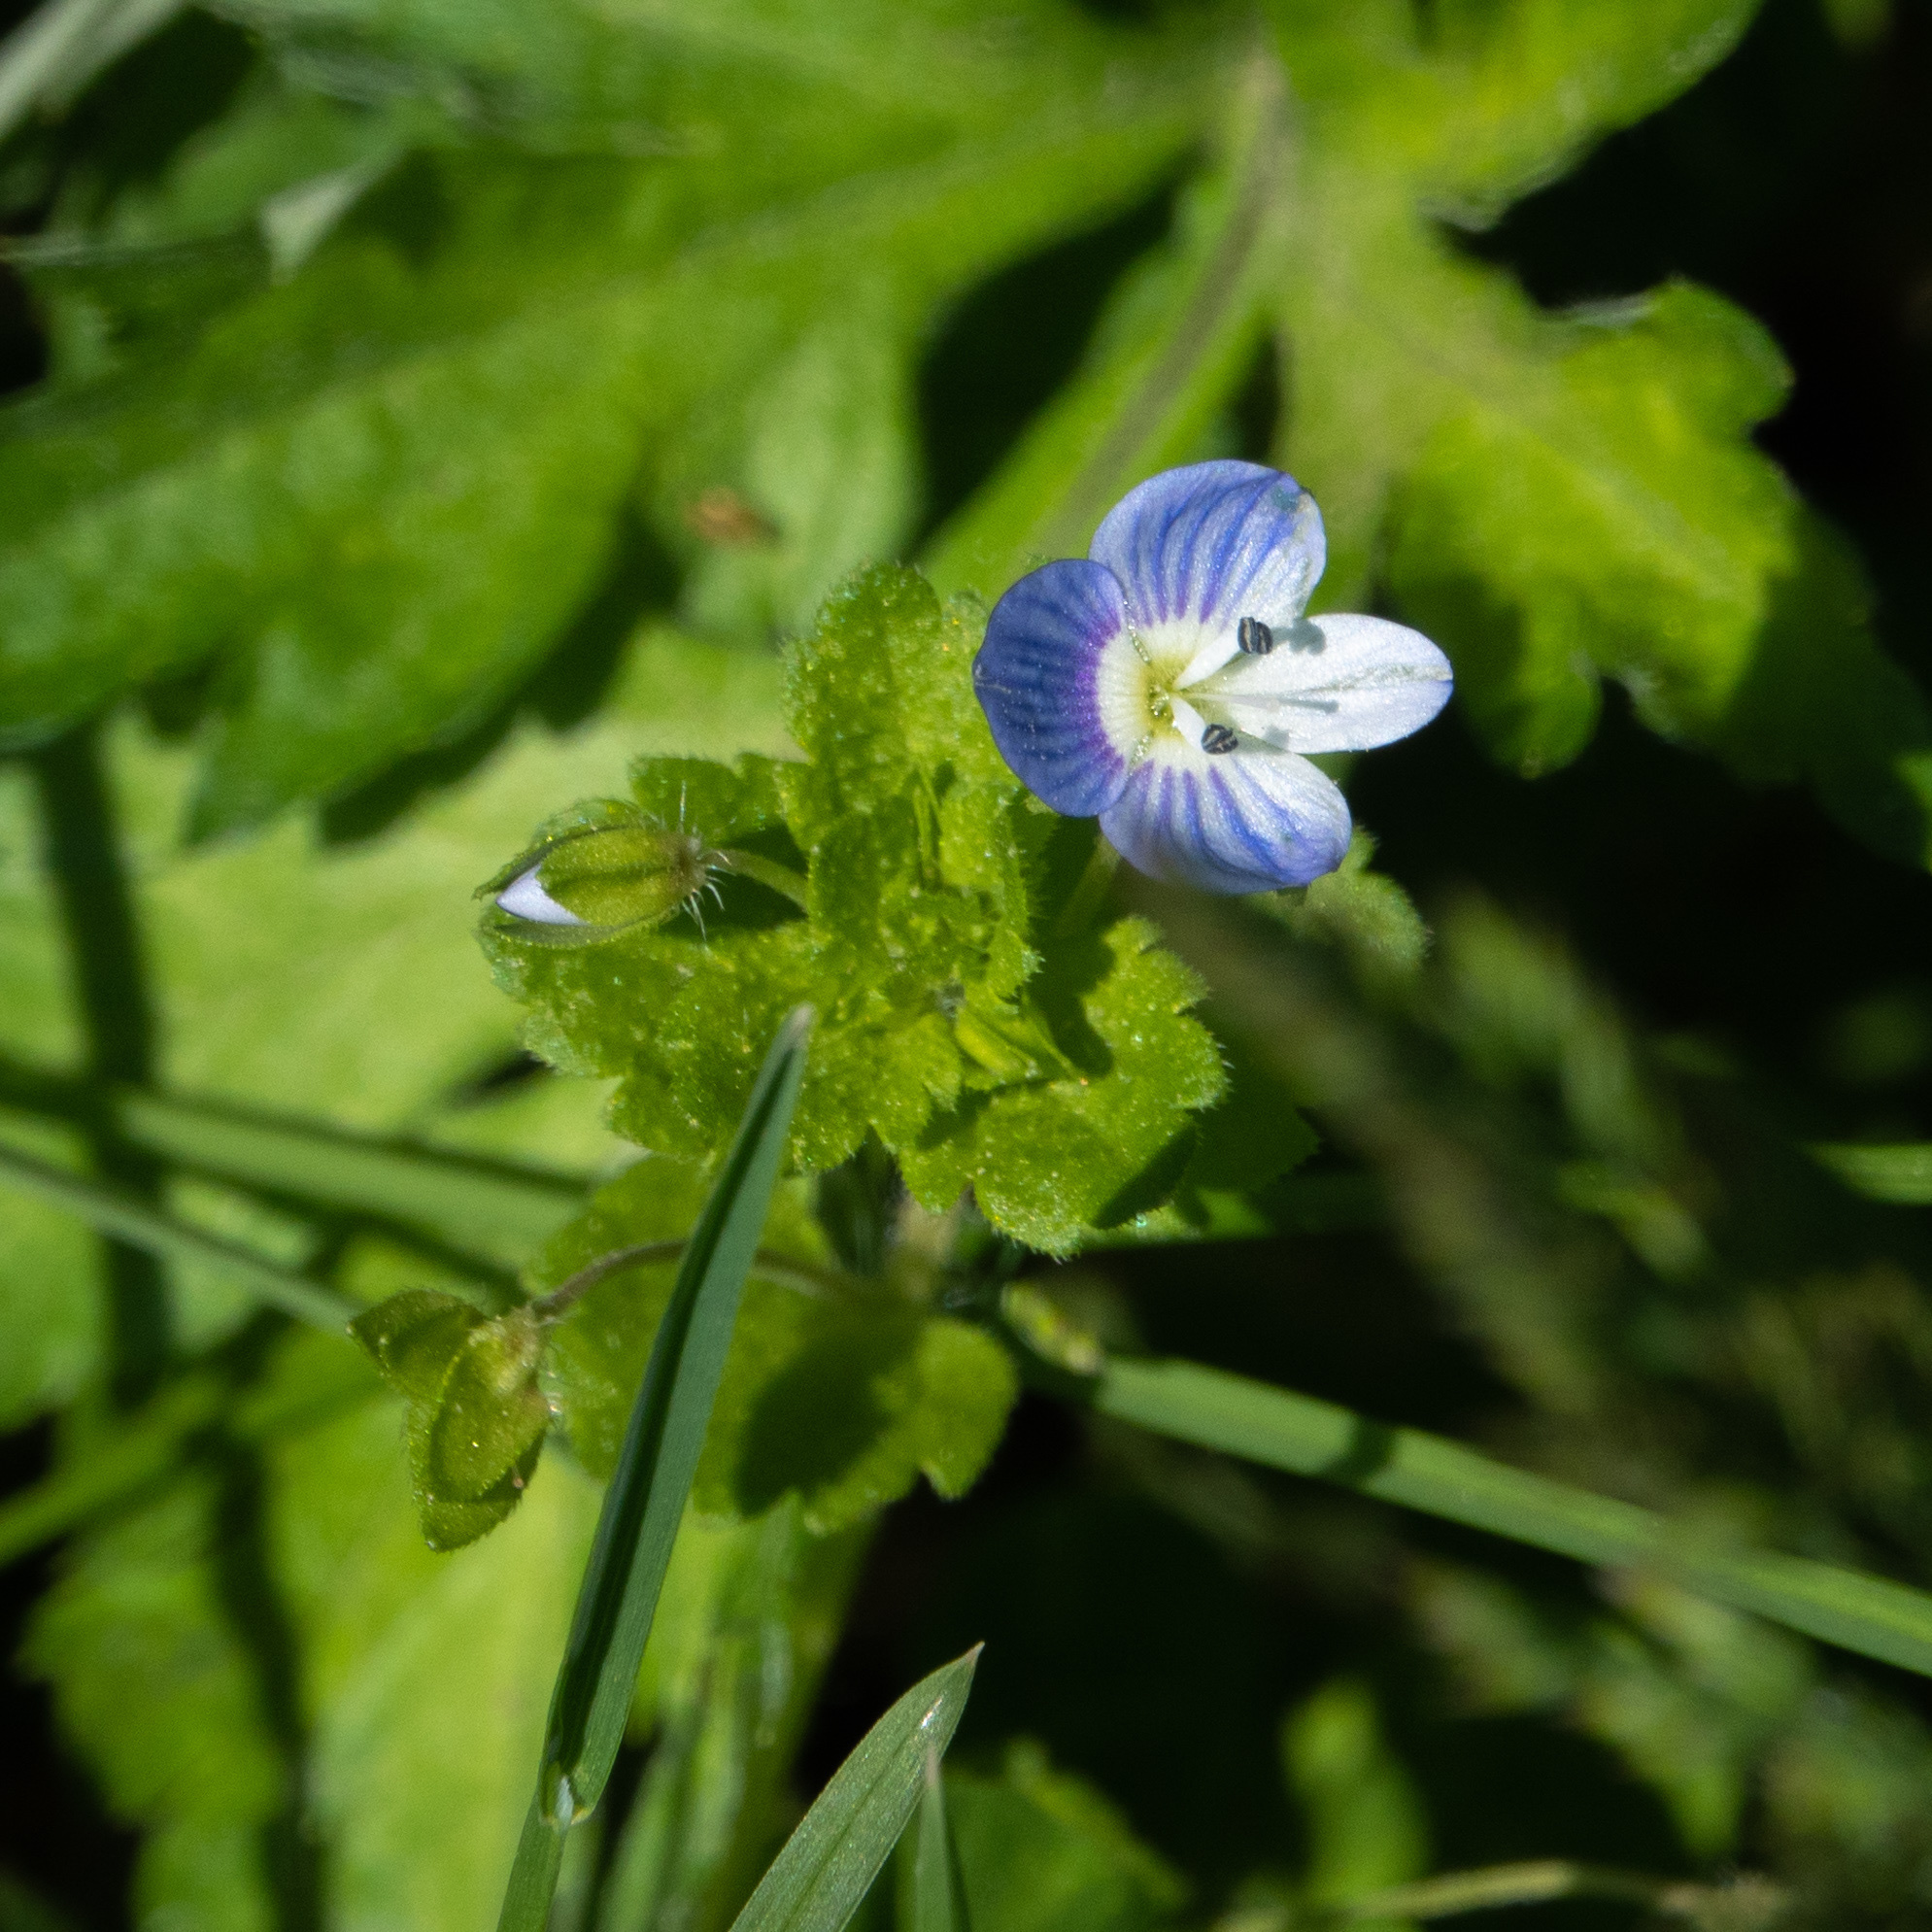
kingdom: Plantae
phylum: Tracheophyta
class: Magnoliopsida
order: Lamiales
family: Plantaginaceae
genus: Veronica
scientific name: Veronica persica
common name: Common field-speedwell
